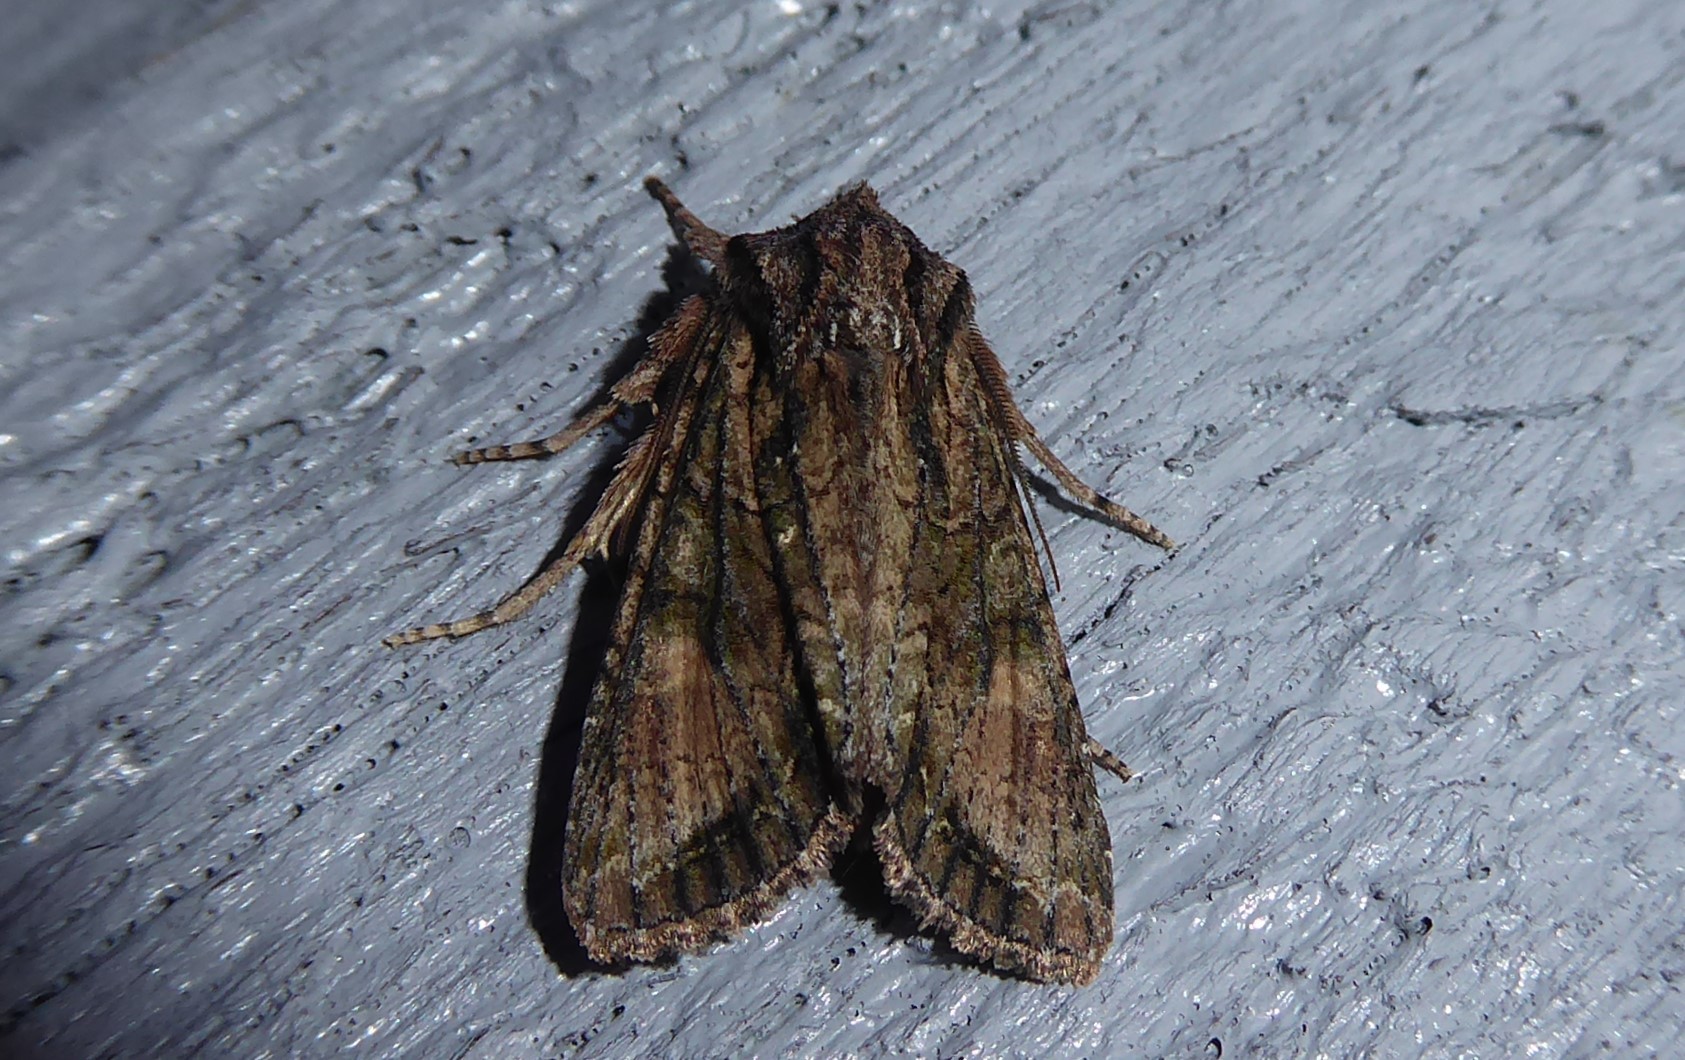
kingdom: Animalia
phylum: Arthropoda
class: Insecta
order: Lepidoptera
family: Noctuidae
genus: Ichneutica
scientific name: Ichneutica mutans
